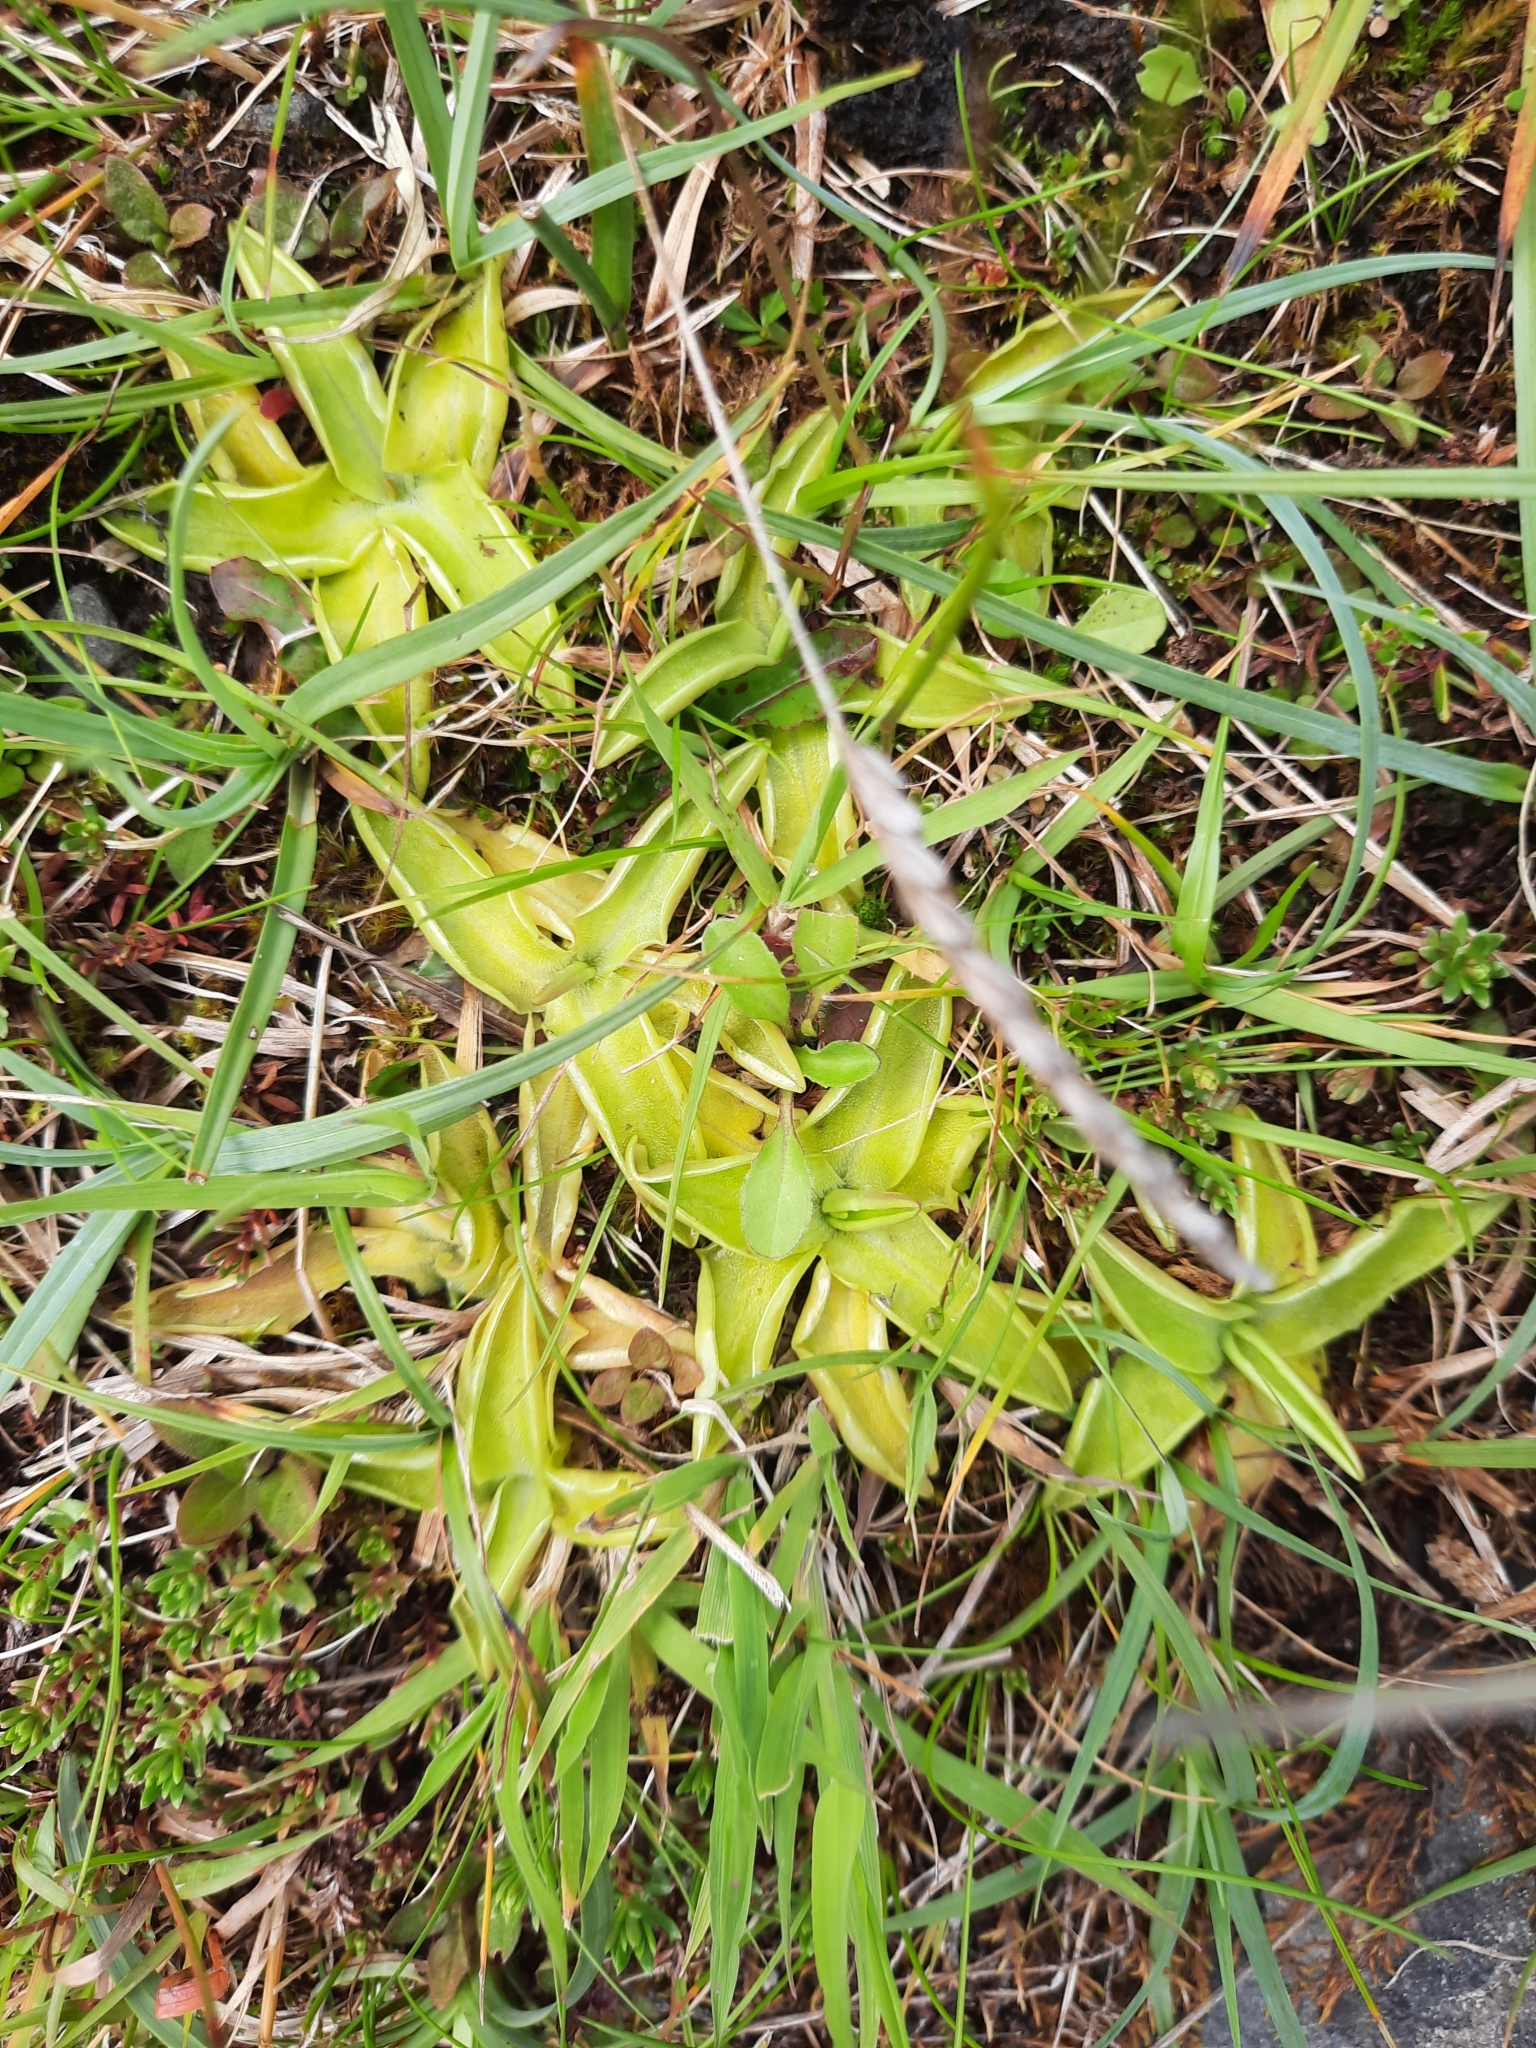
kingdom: Plantae
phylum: Tracheophyta
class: Magnoliopsida
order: Lamiales
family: Lentibulariaceae
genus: Pinguicula
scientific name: Pinguicula vulgaris
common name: Common butterwort
